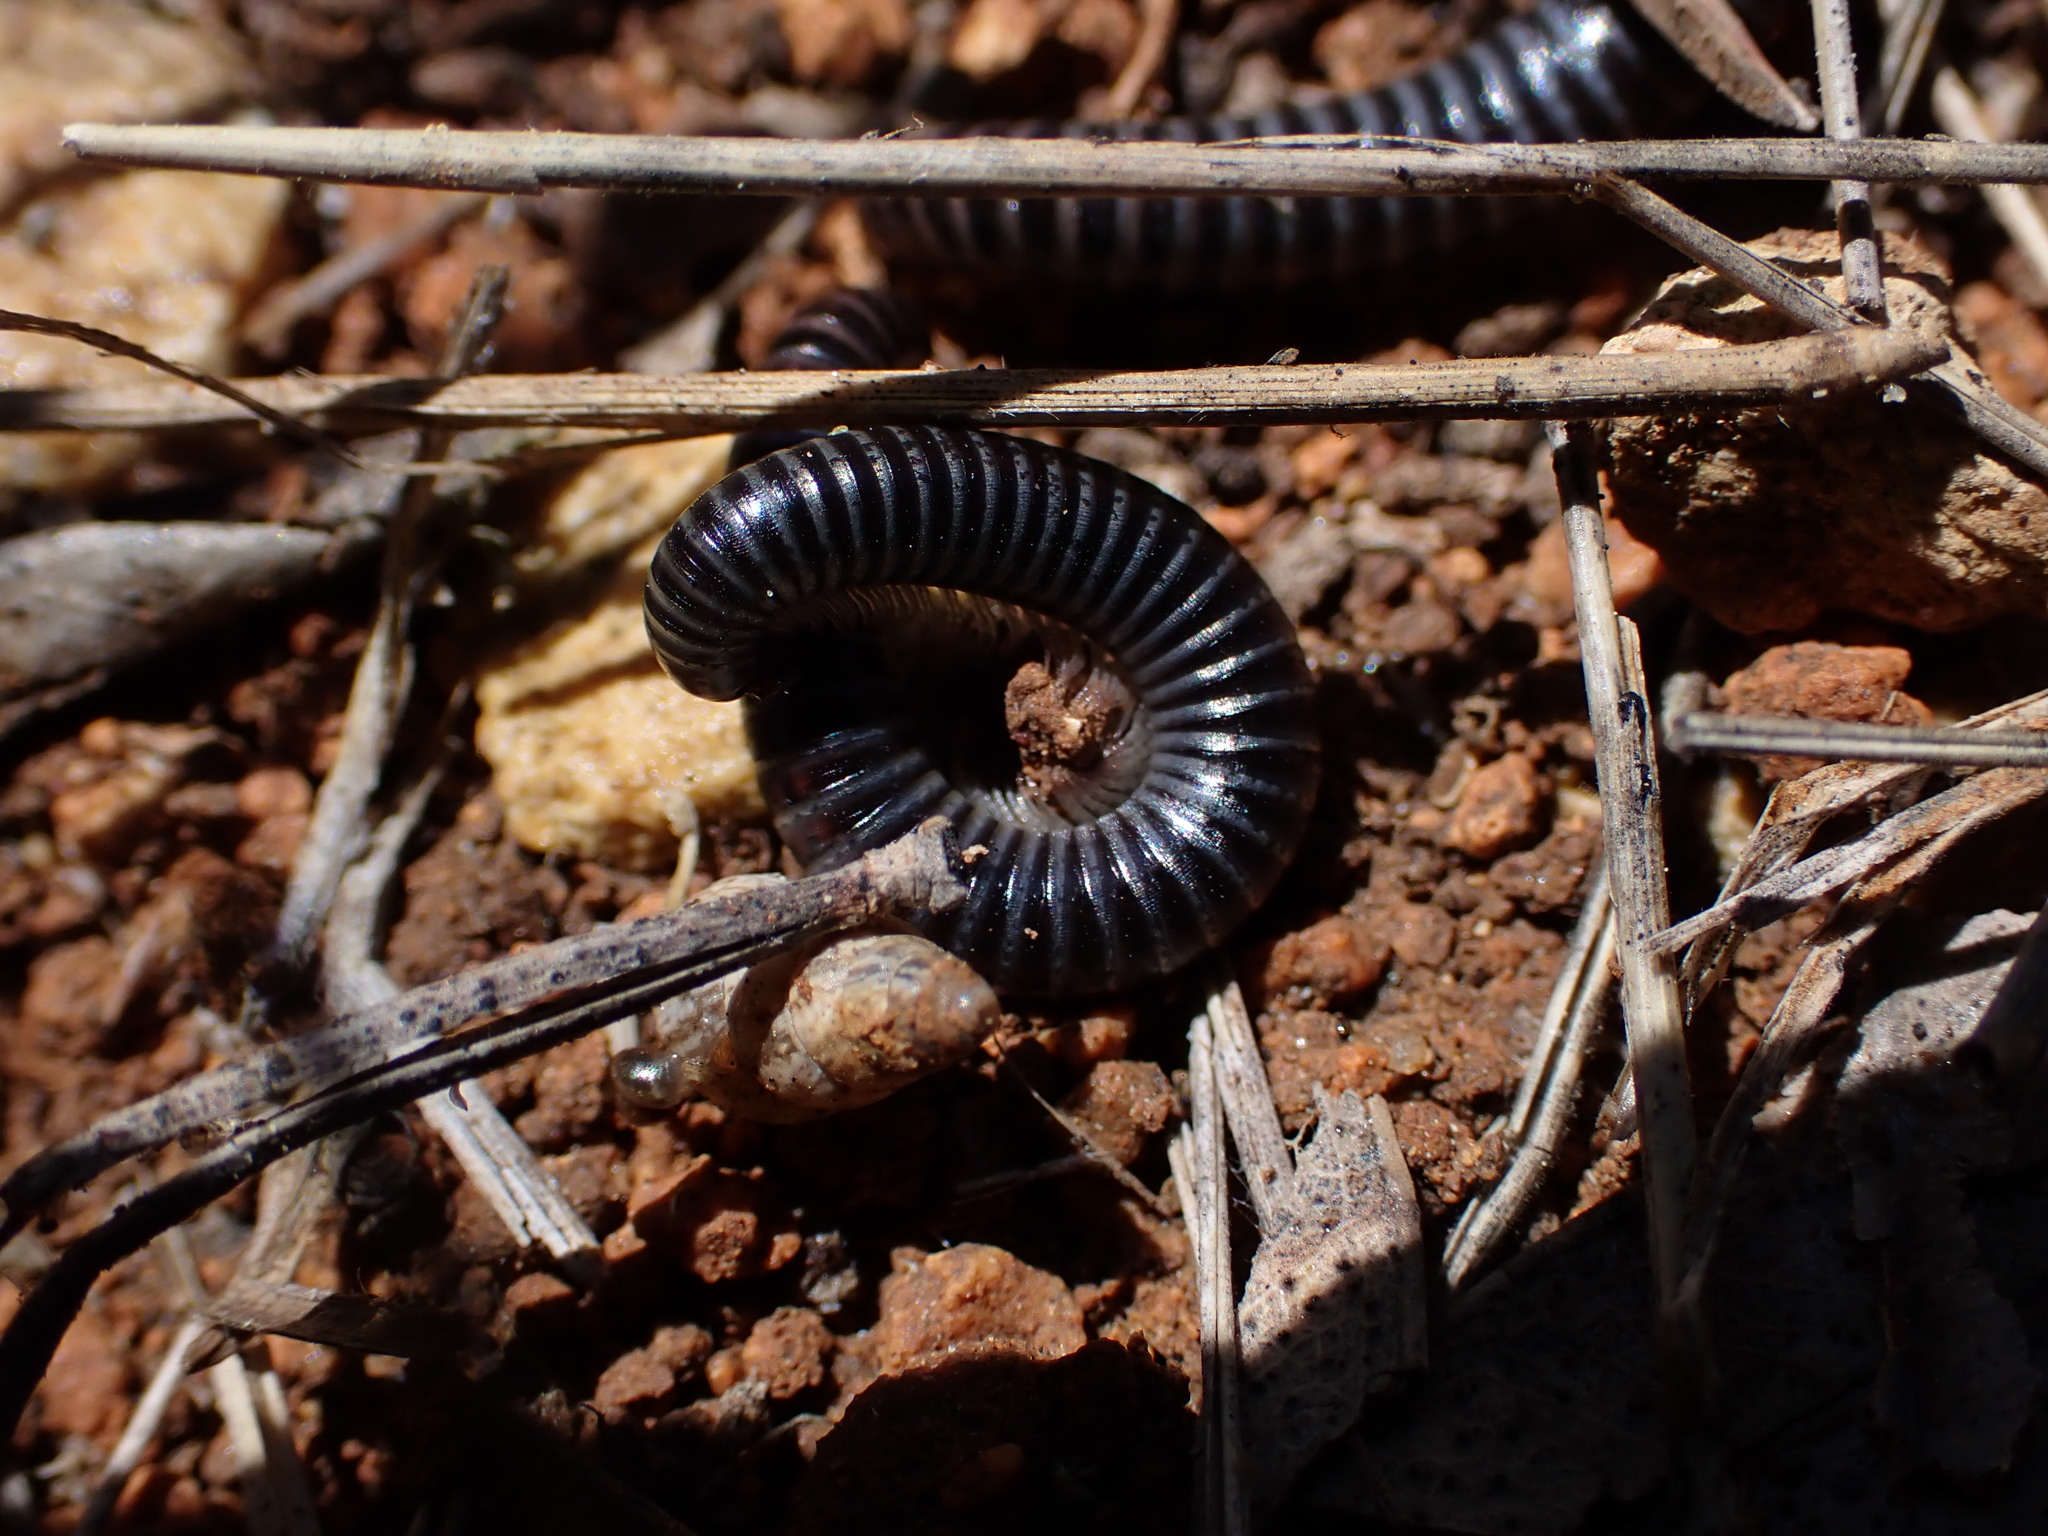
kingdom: Animalia
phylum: Arthropoda
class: Diplopoda
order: Julida
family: Julidae
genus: Ommatoiulus
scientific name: Ommatoiulus sabulosus
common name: Striped millipede
